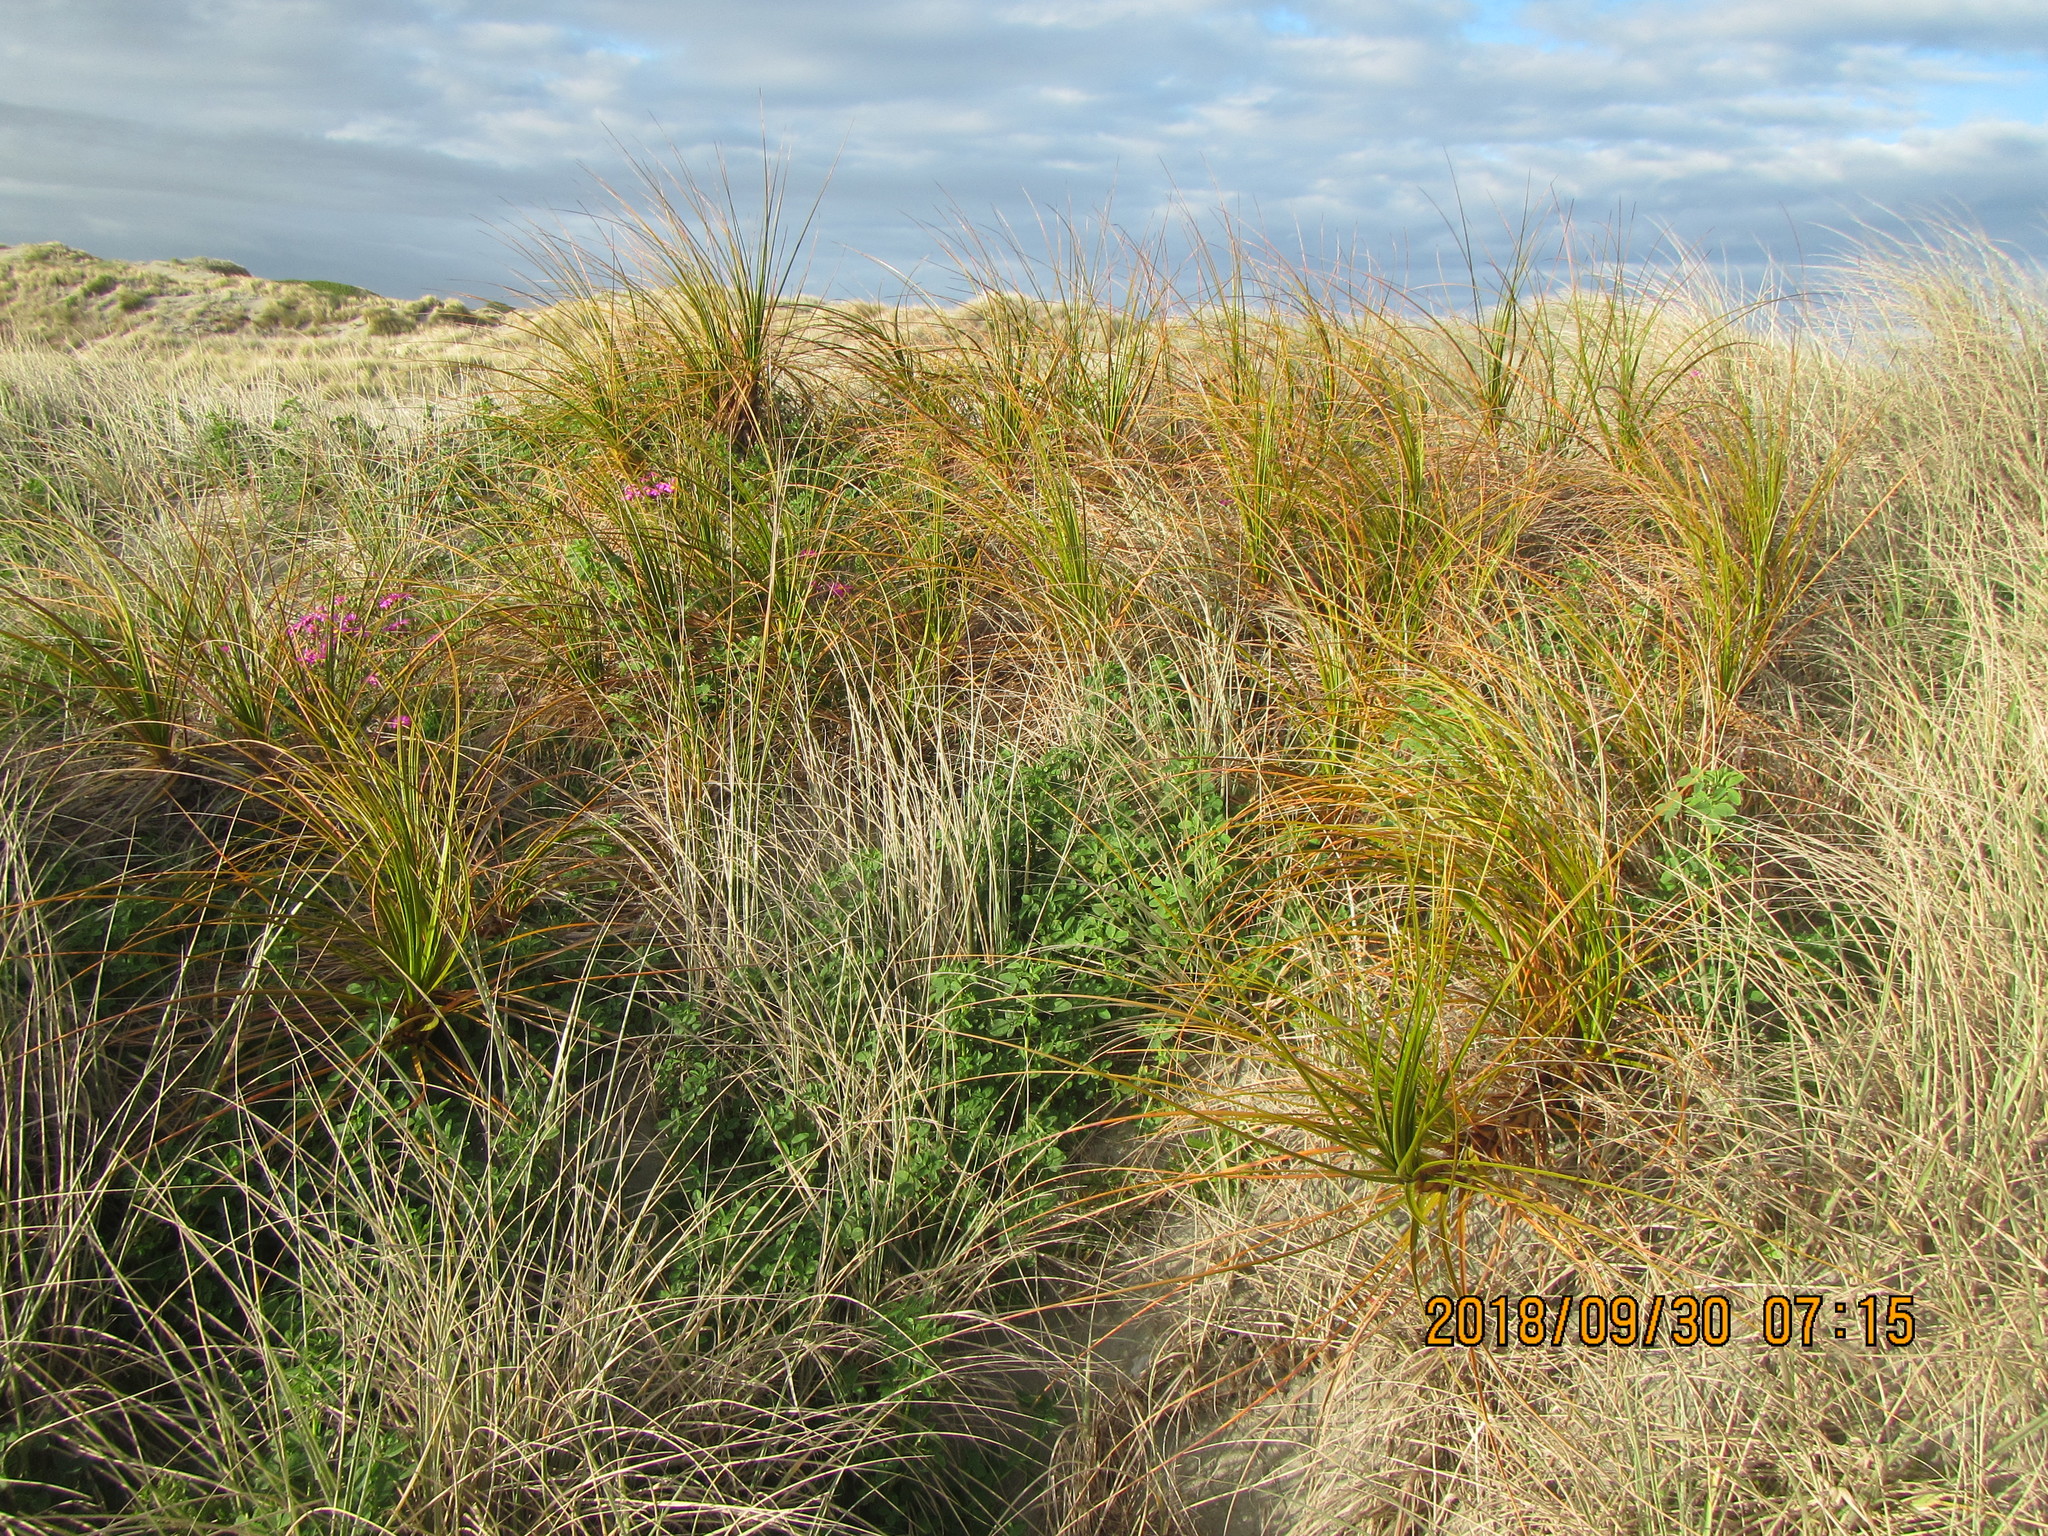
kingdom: Plantae
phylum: Tracheophyta
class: Liliopsida
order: Poales
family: Cyperaceae
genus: Ficinia
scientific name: Ficinia spiralis
